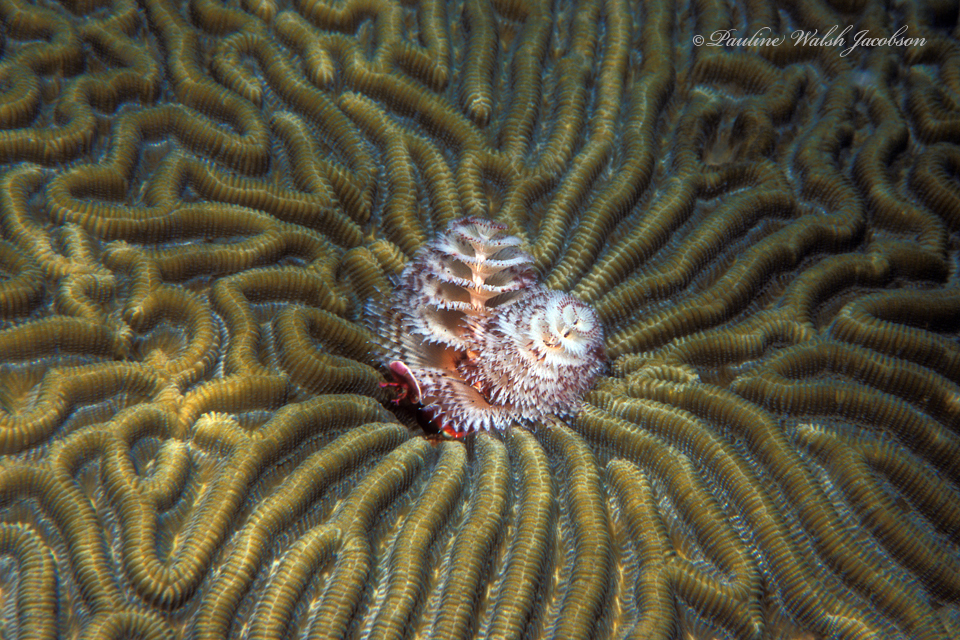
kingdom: Animalia
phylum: Annelida
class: Polychaeta
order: Sabellida
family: Serpulidae
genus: Spirobranchus
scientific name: Spirobranchus giganteus
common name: Christmas tree worm
